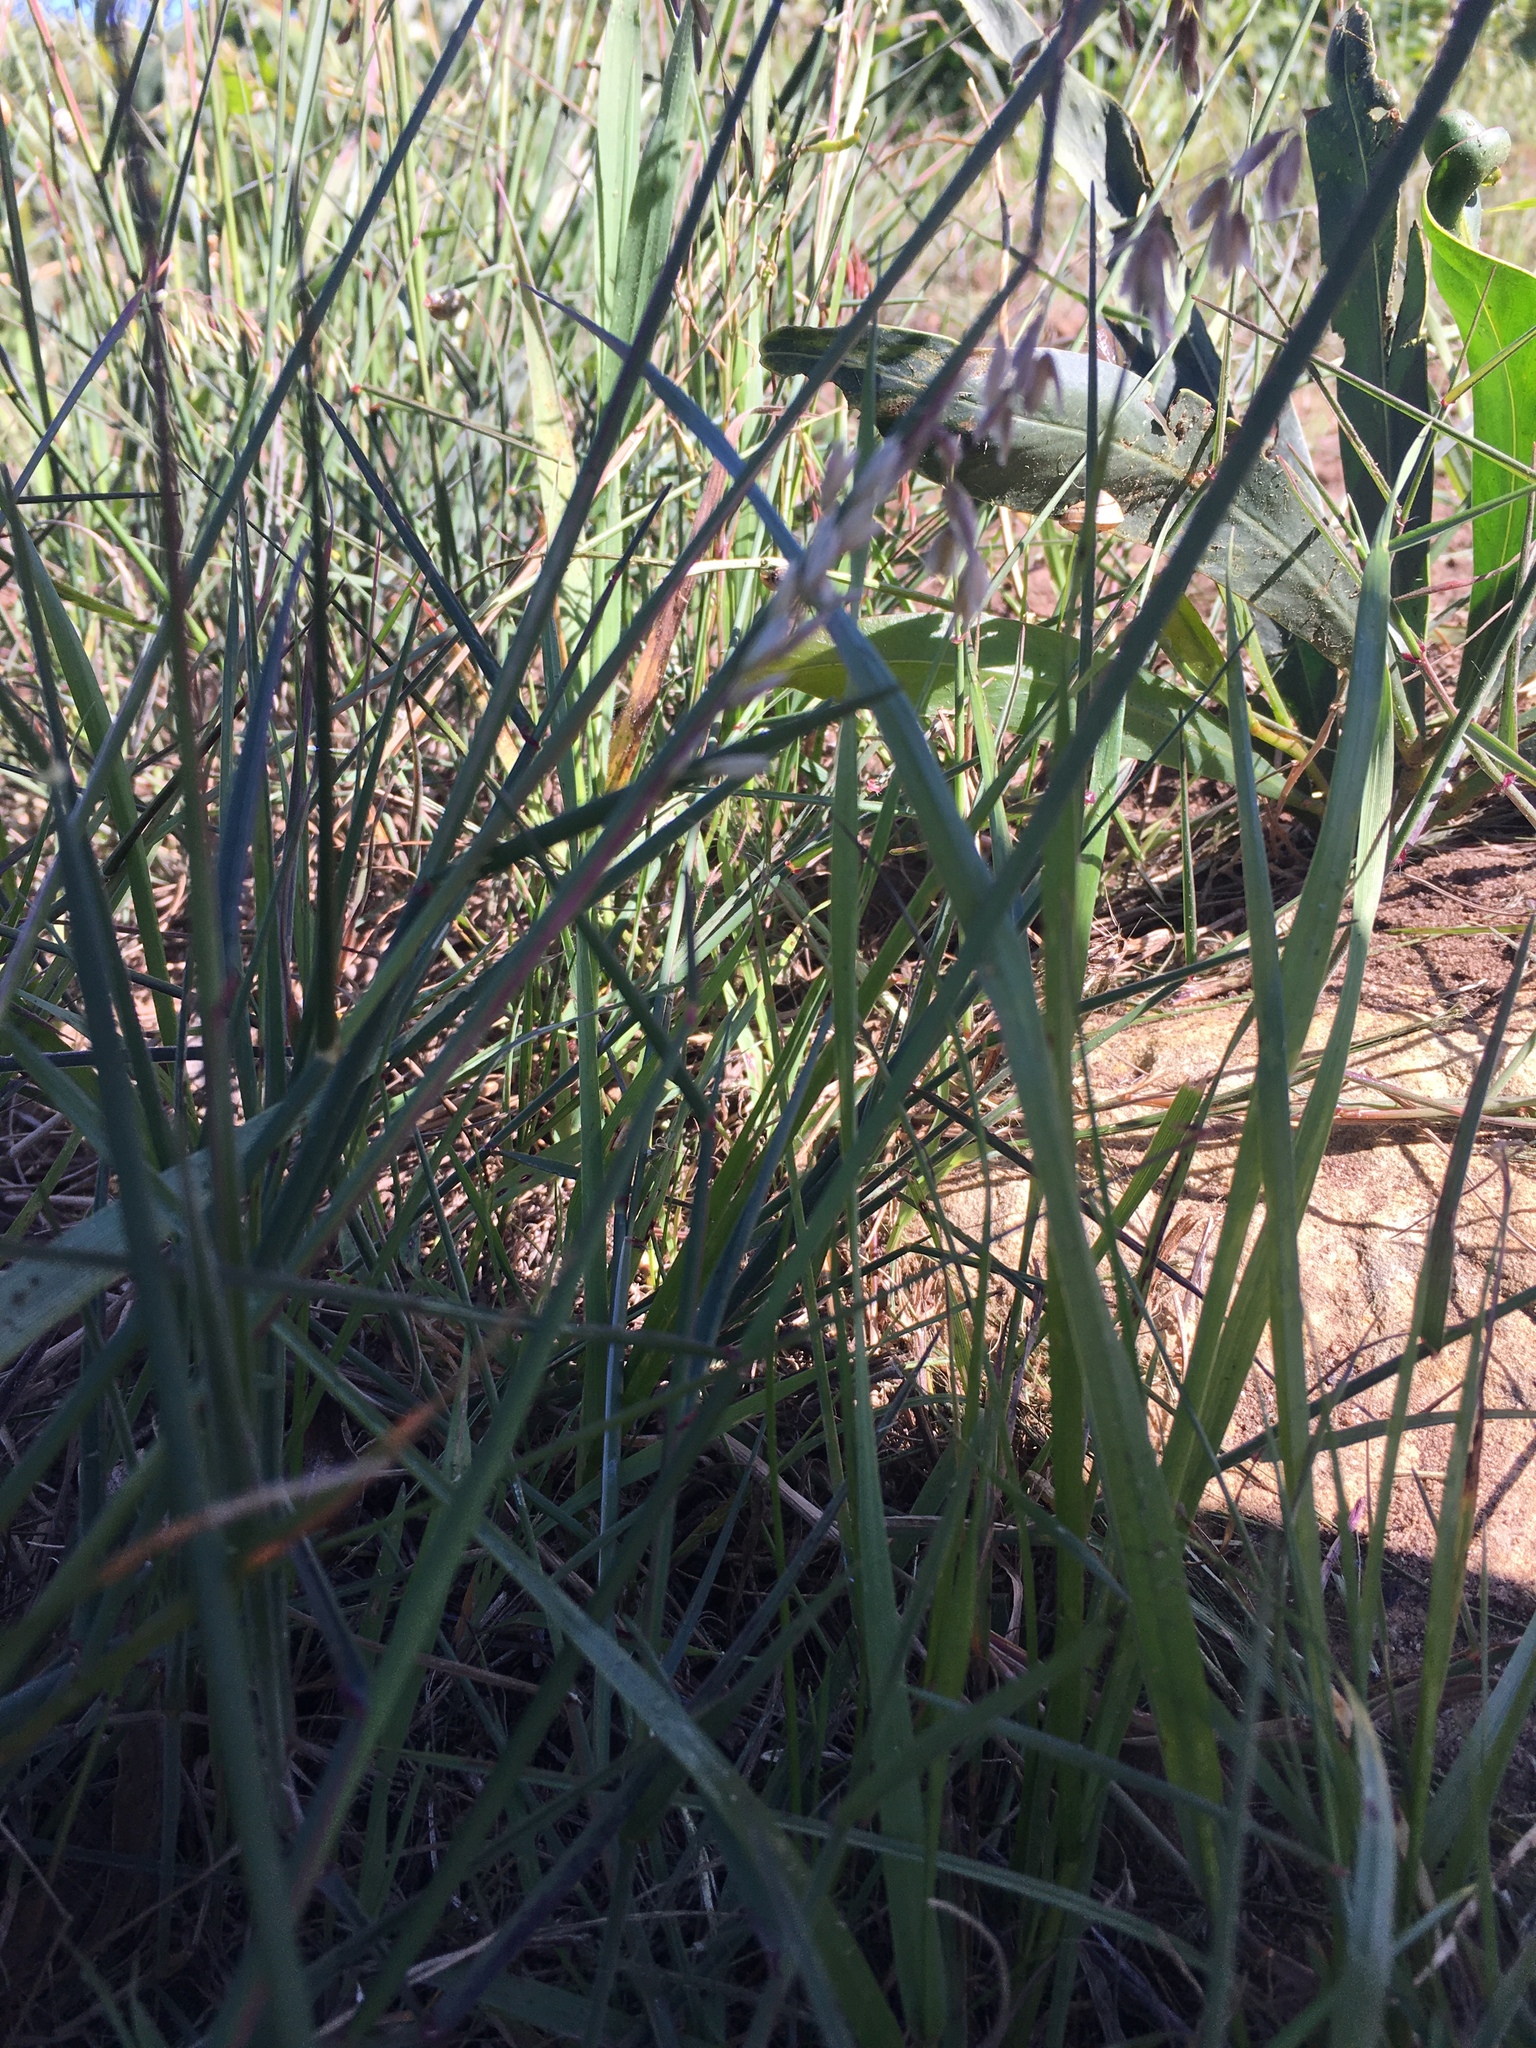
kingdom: Plantae
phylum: Tracheophyta
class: Liliopsida
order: Poales
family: Poaceae
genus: Ehrharta
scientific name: Ehrharta calycina
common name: Perennial veldtgrass
